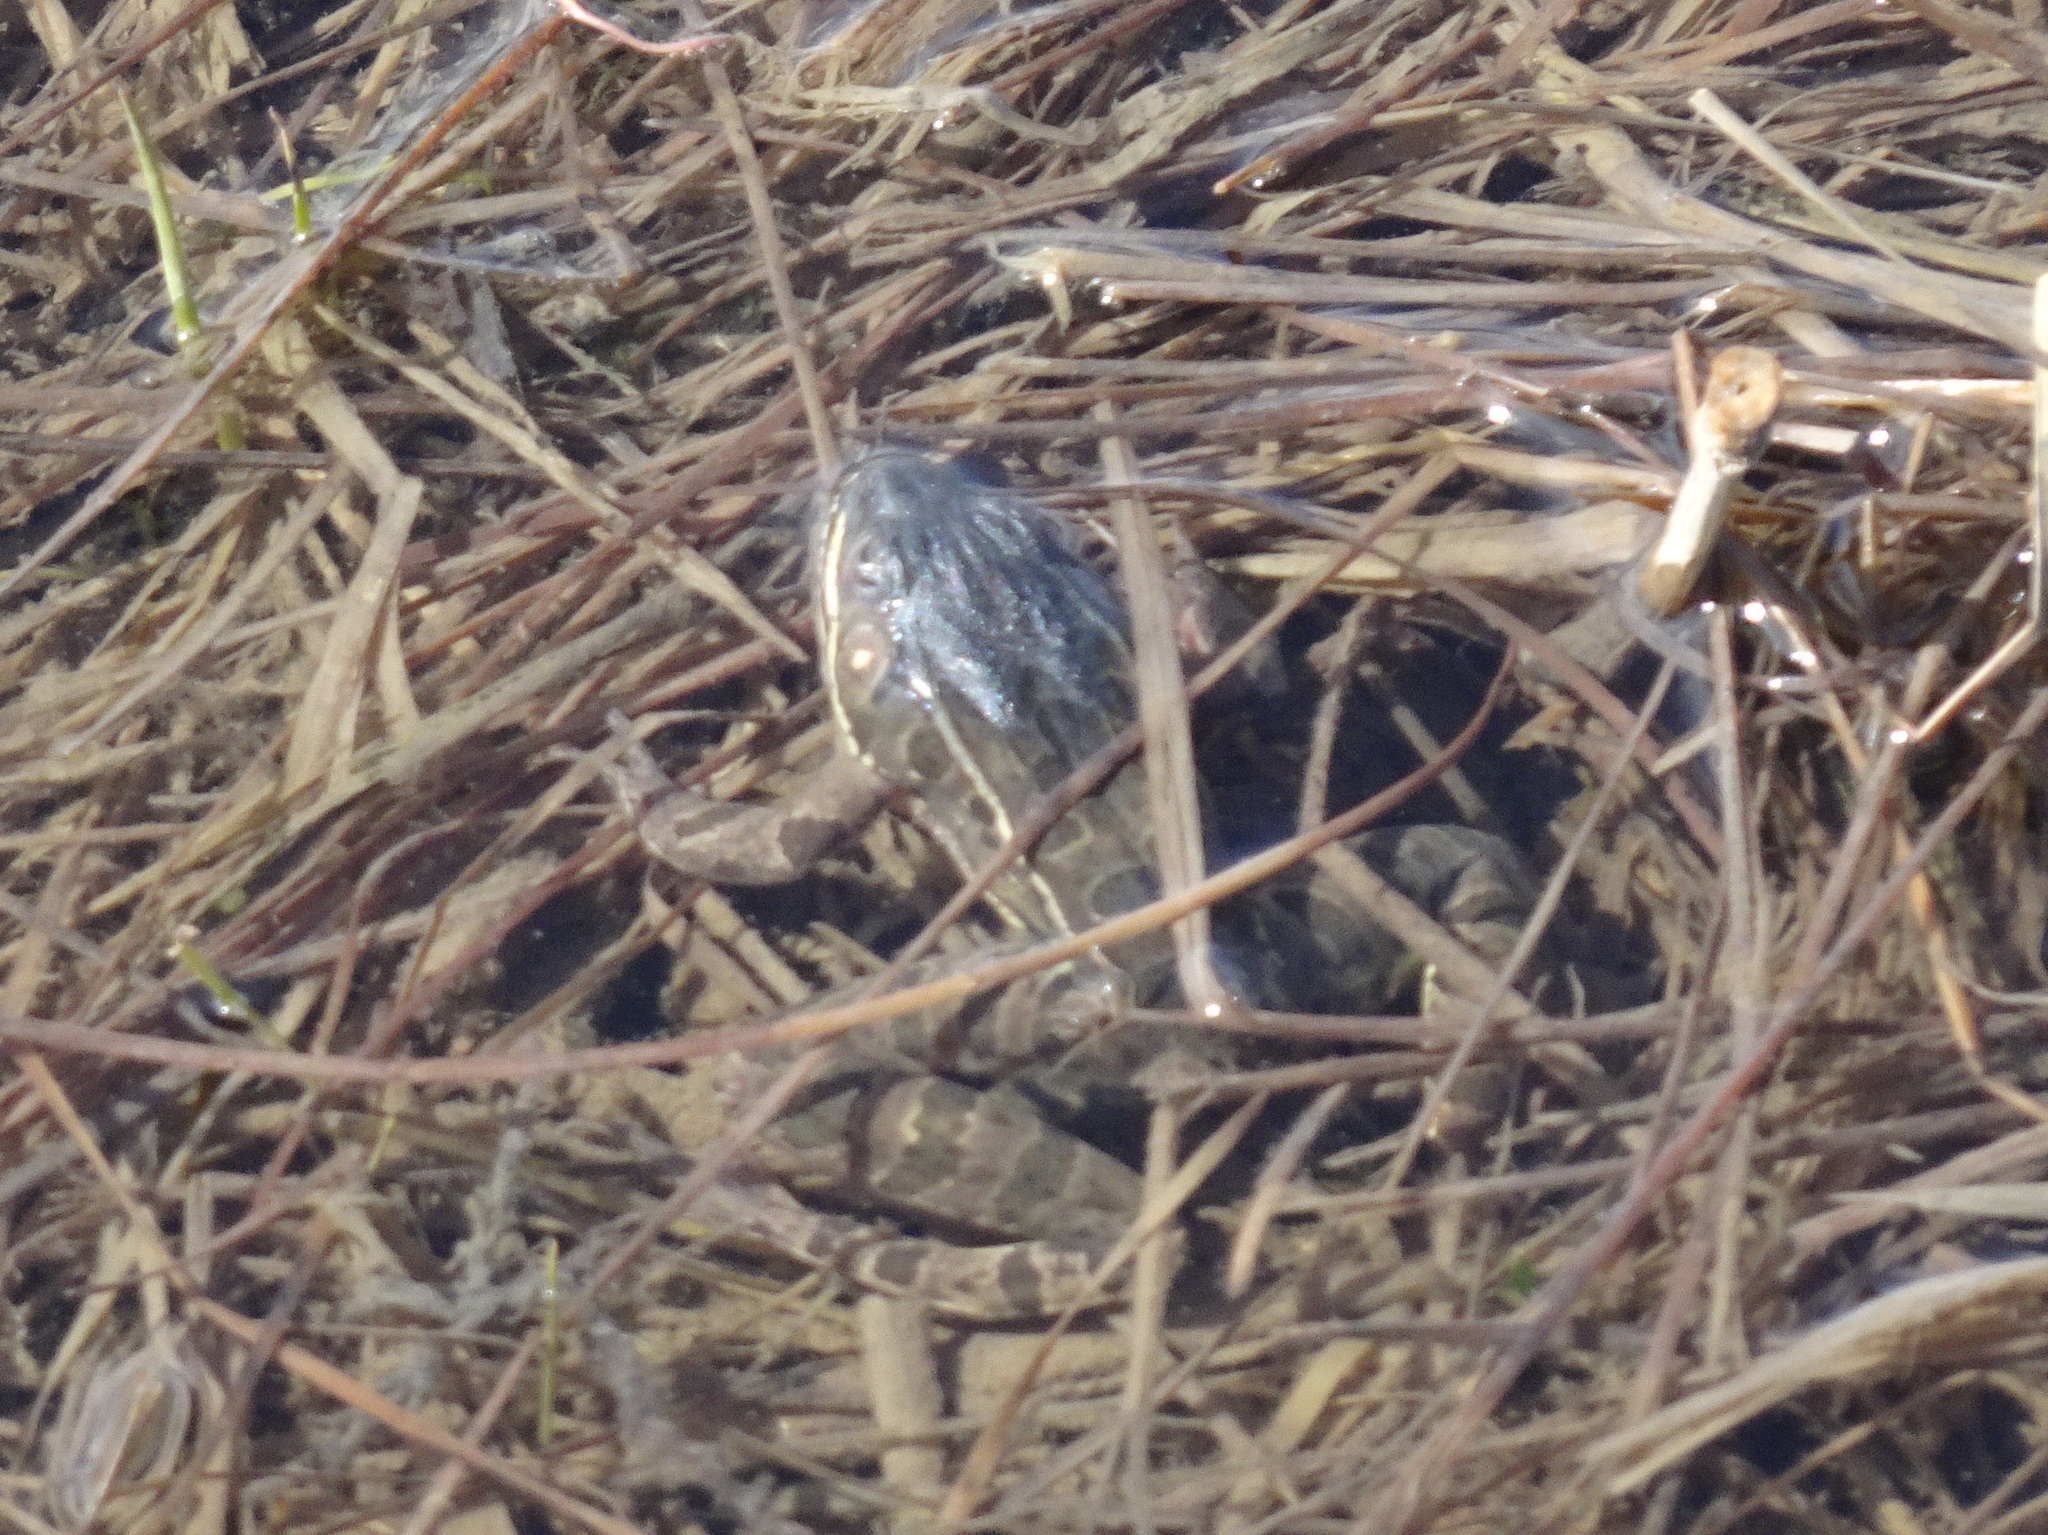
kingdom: Animalia
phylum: Chordata
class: Amphibia
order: Anura
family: Ranidae
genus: Lithobates
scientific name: Lithobates blairi
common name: Plains leopard frog
